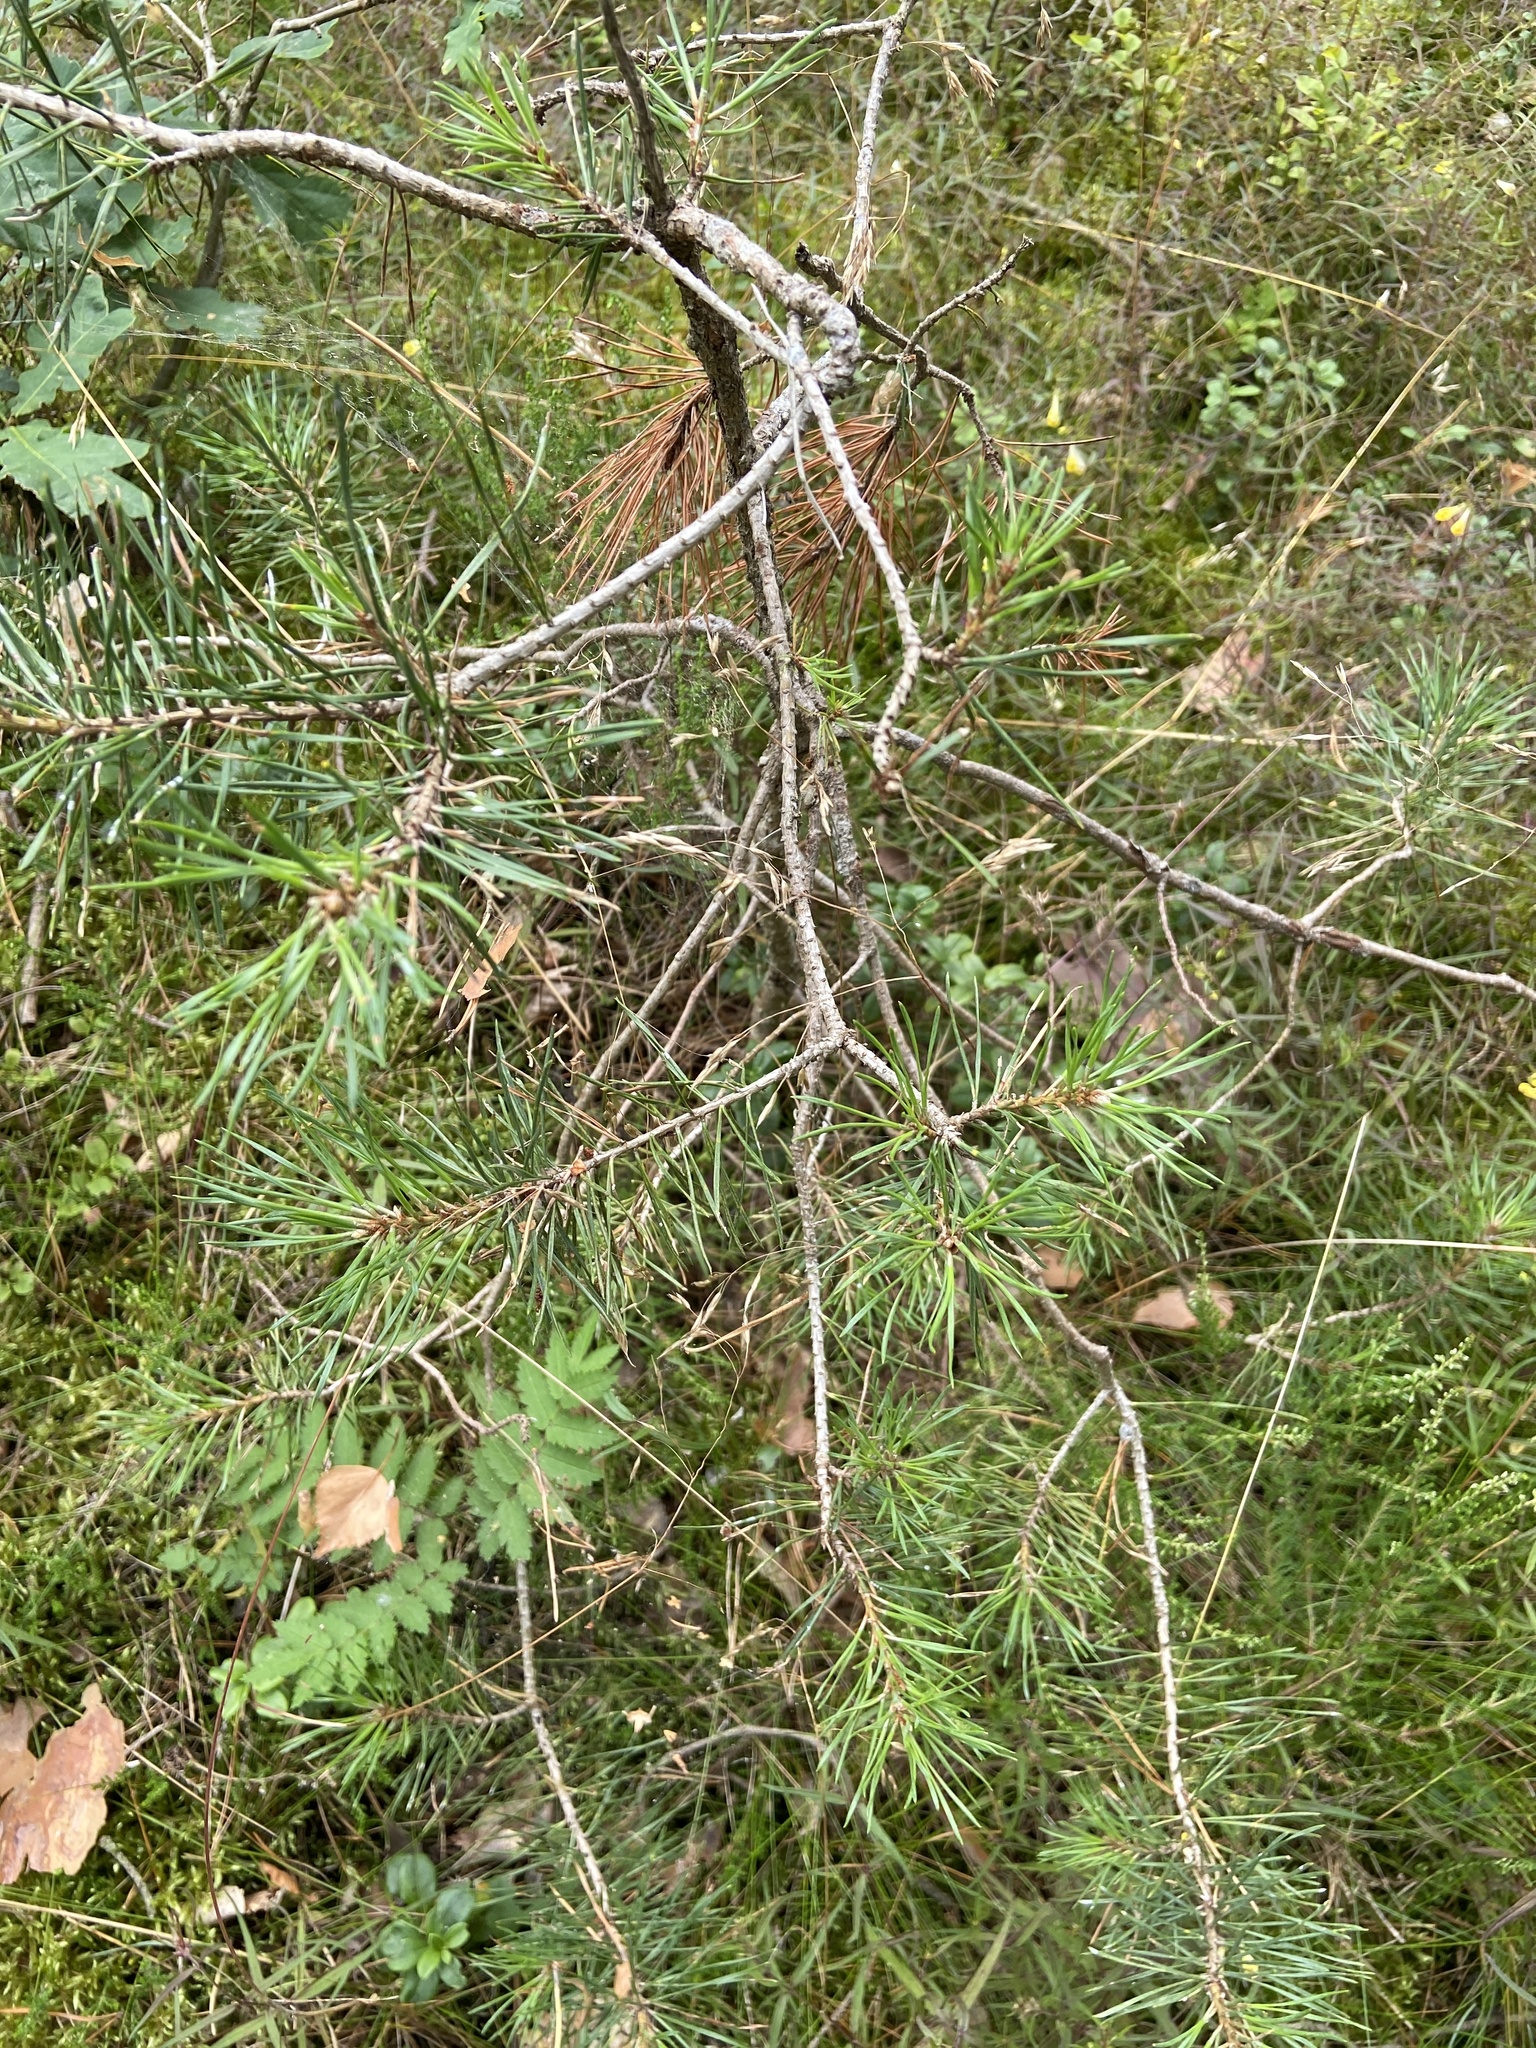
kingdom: Plantae
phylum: Tracheophyta
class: Pinopsida
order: Pinales
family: Pinaceae
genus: Pinus
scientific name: Pinus sylvestris
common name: Scots pine
